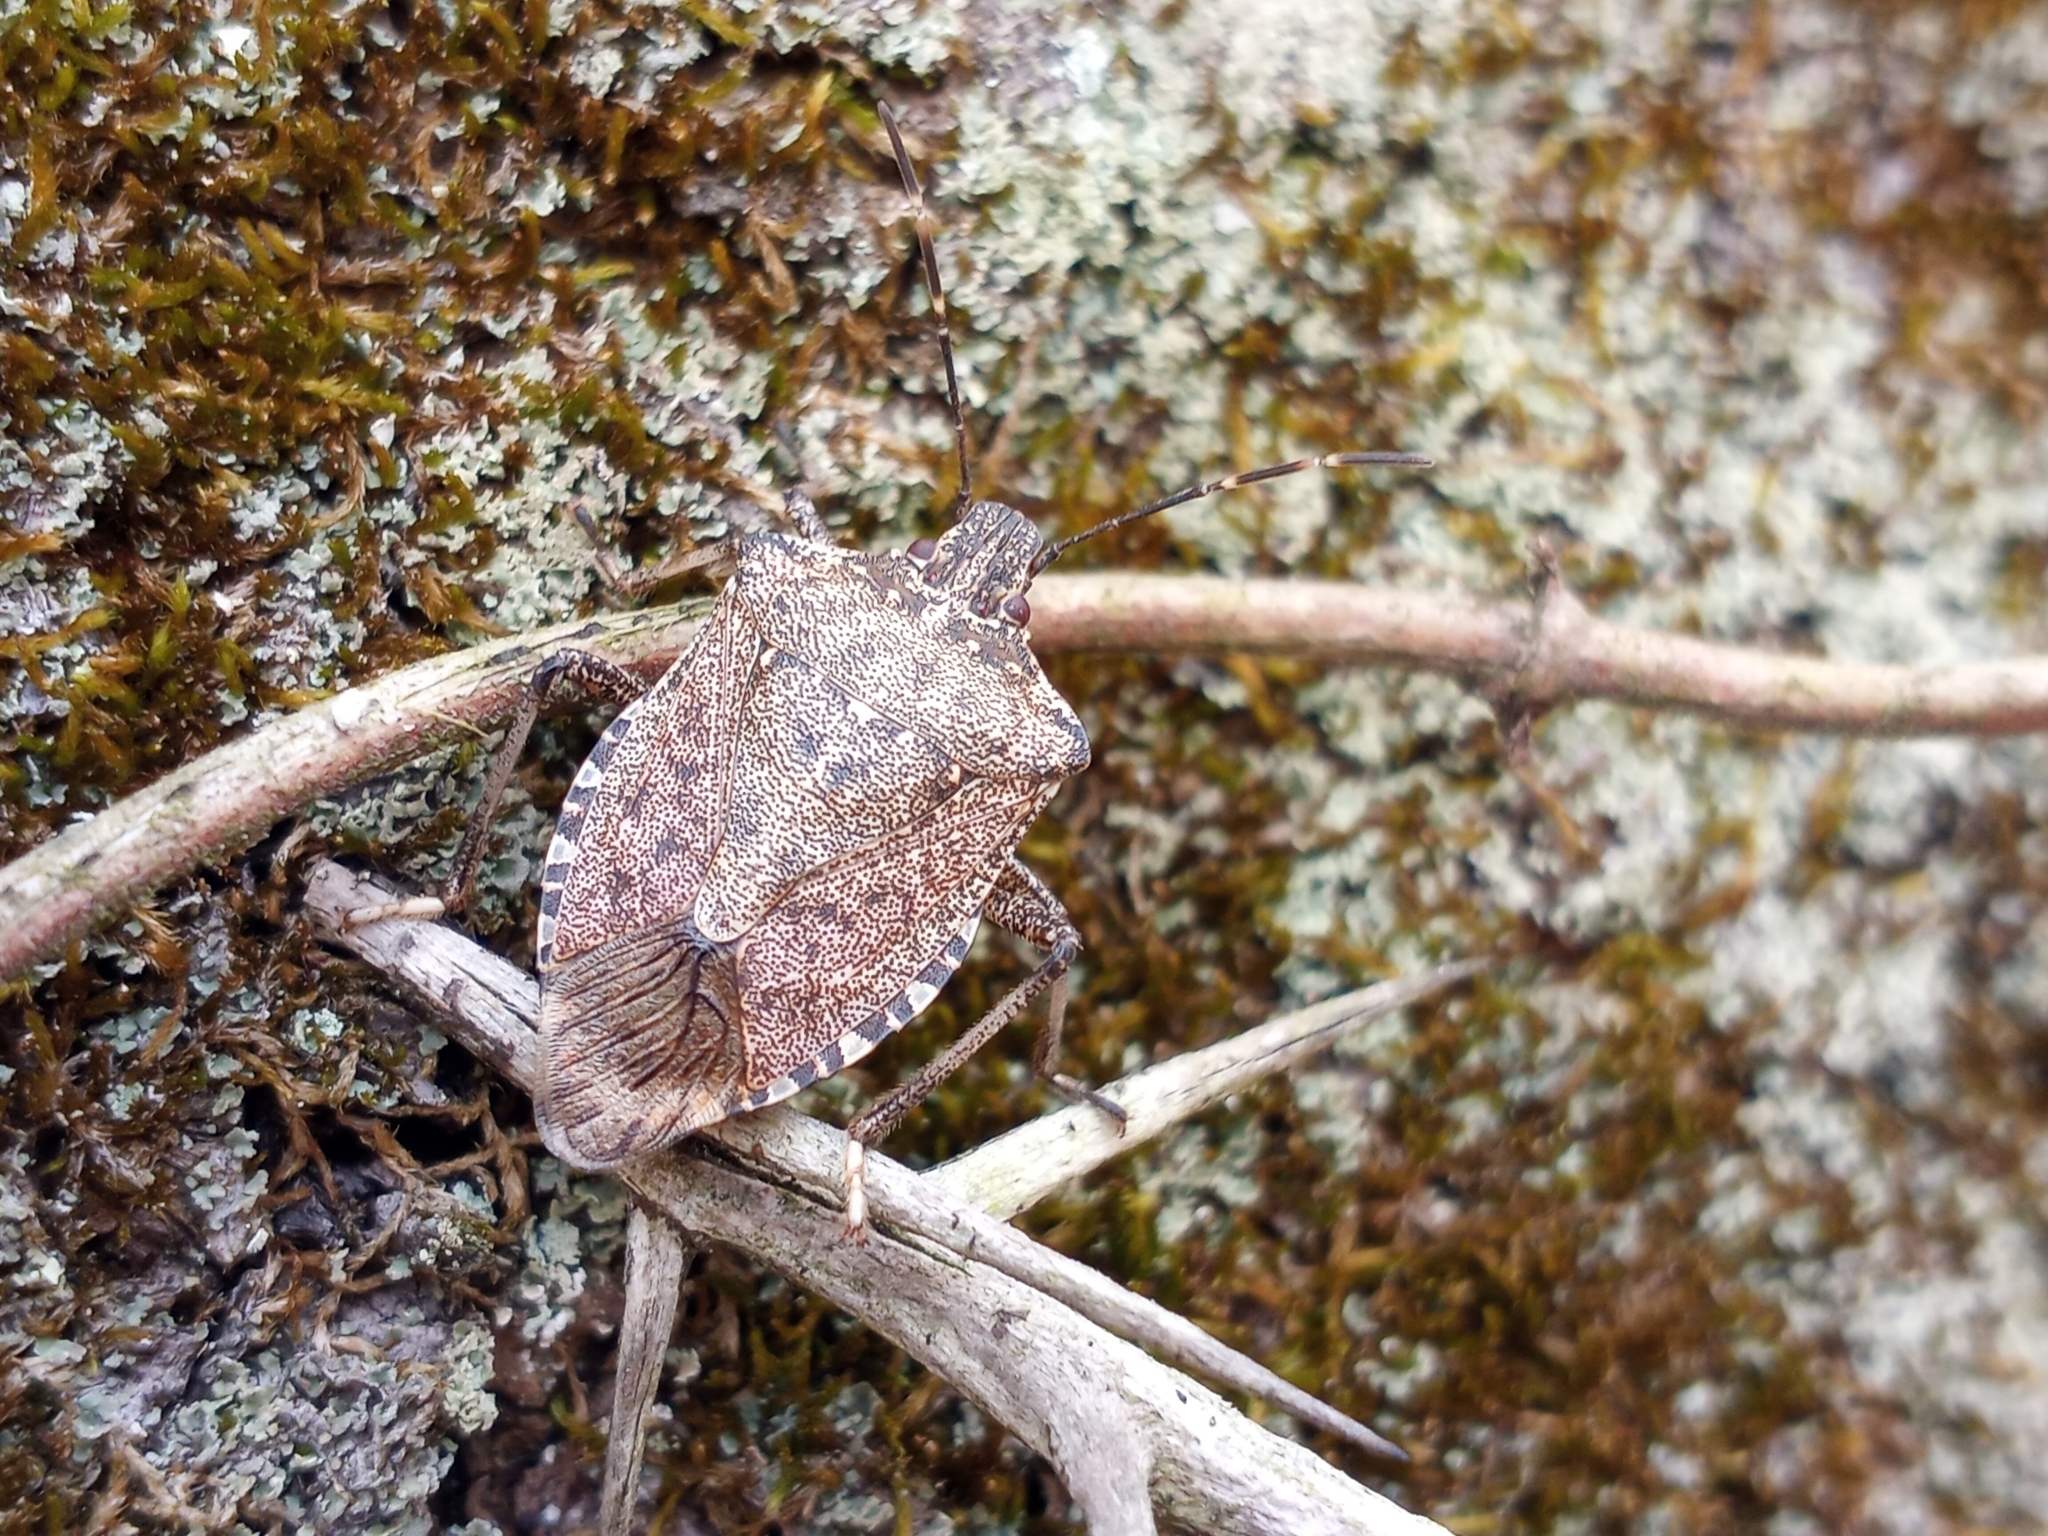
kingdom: Animalia
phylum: Arthropoda
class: Insecta
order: Hemiptera
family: Pentatomidae
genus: Halyomorpha
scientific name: Halyomorpha halys
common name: Brown marmorated stink bug
